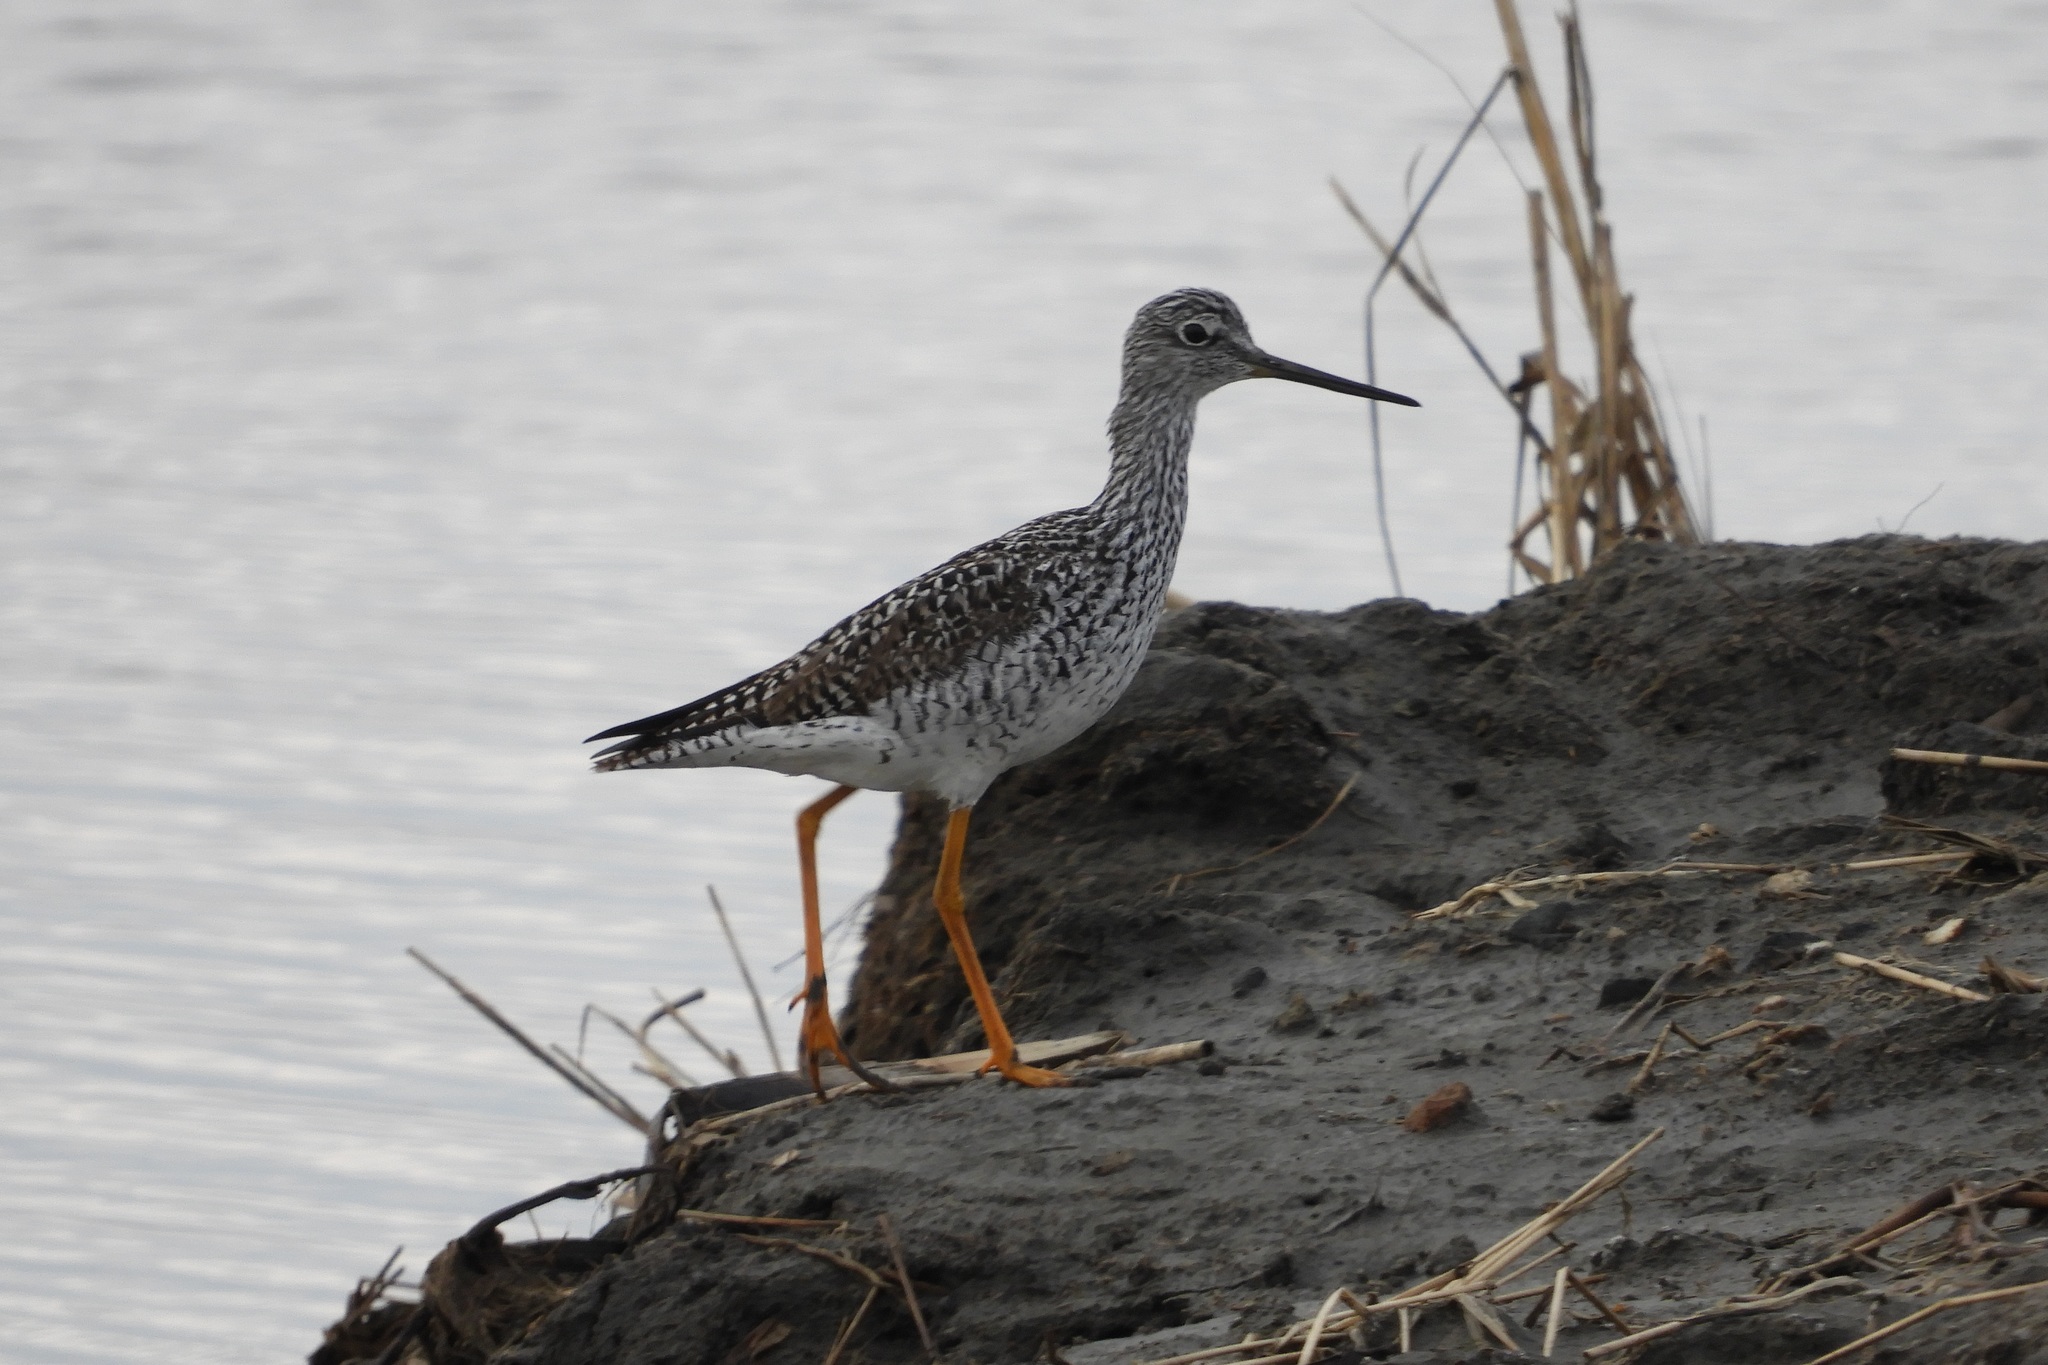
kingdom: Animalia
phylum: Chordata
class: Aves
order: Charadriiformes
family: Scolopacidae
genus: Tringa
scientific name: Tringa melanoleuca
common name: Greater yellowlegs
